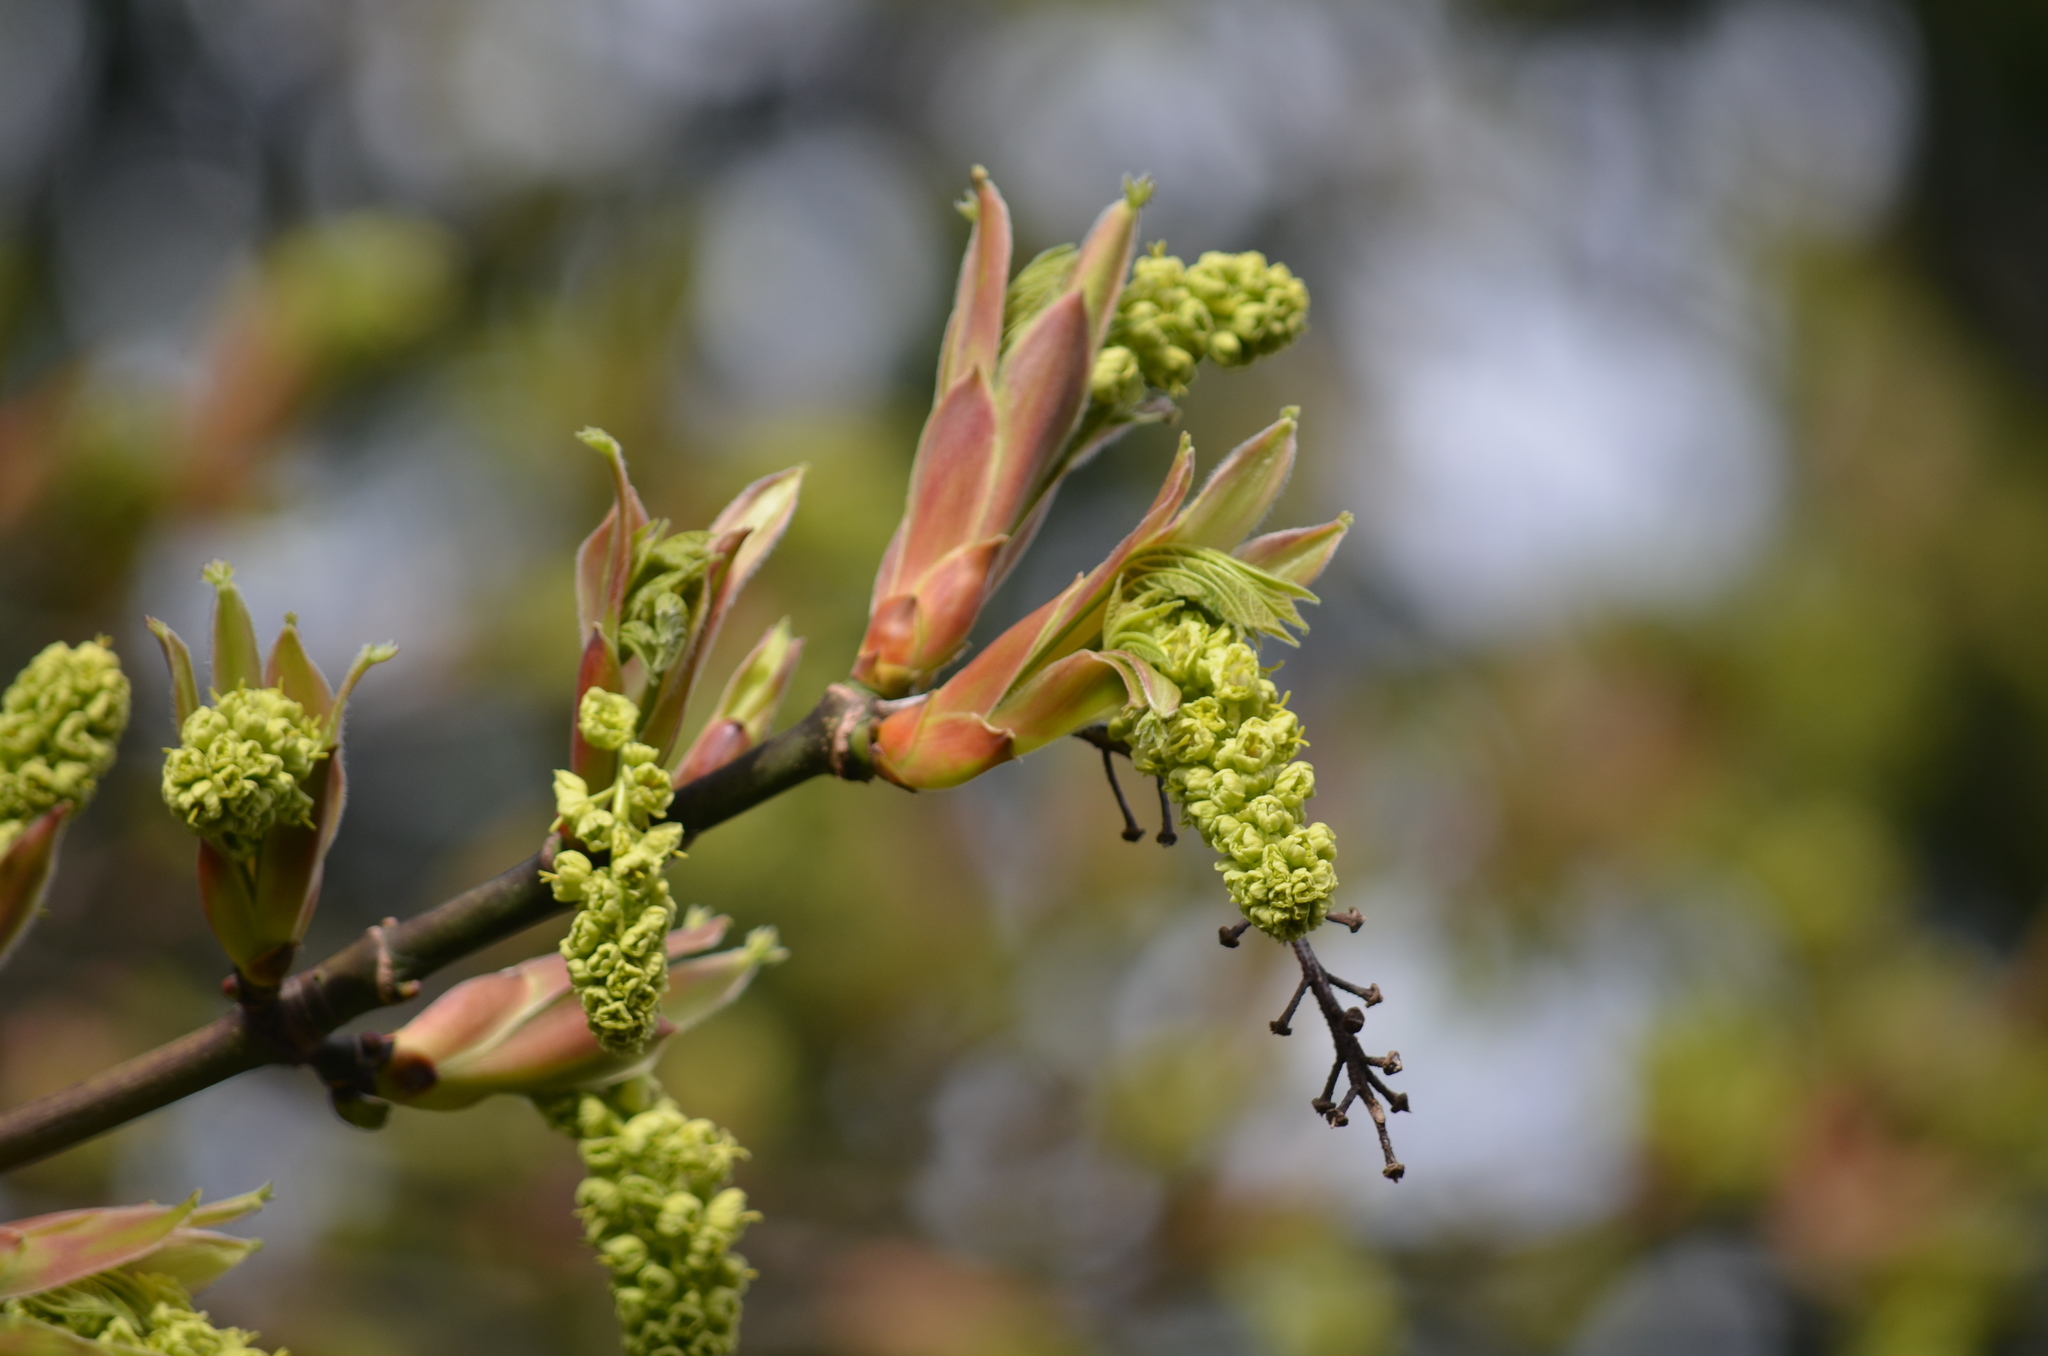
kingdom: Plantae
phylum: Tracheophyta
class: Magnoliopsida
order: Sapindales
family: Sapindaceae
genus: Acer
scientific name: Acer macrophyllum
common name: Oregon maple
